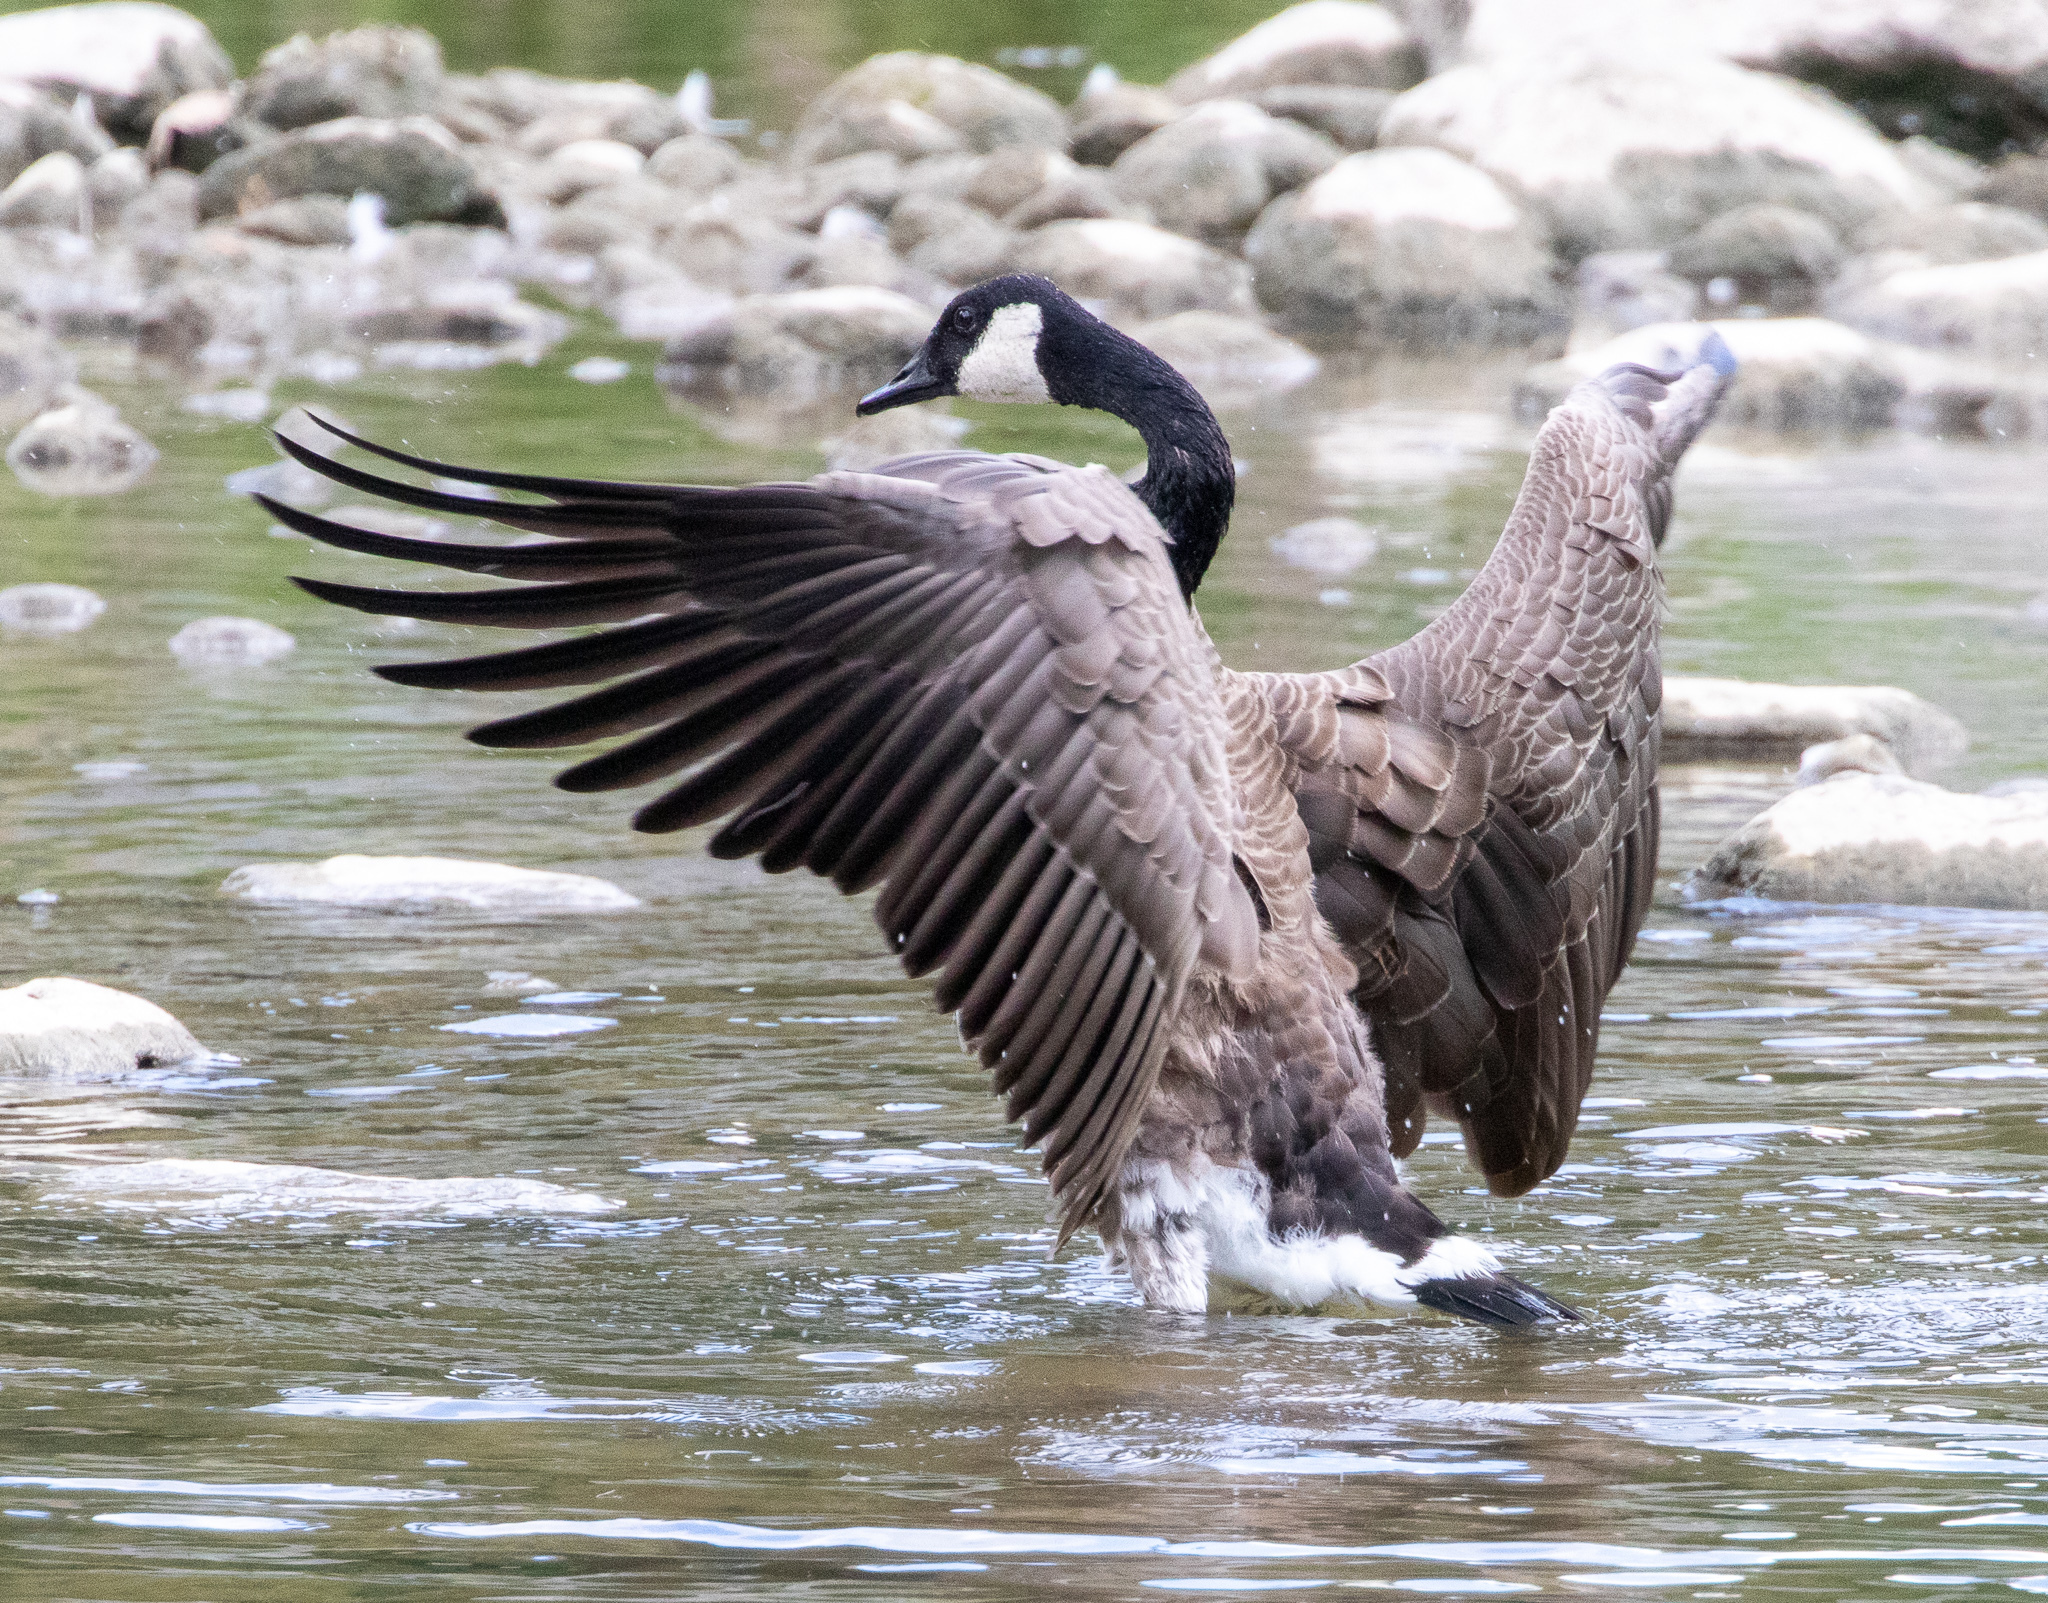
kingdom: Animalia
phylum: Chordata
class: Aves
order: Anseriformes
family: Anatidae
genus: Branta
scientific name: Branta canadensis
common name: Canada goose
